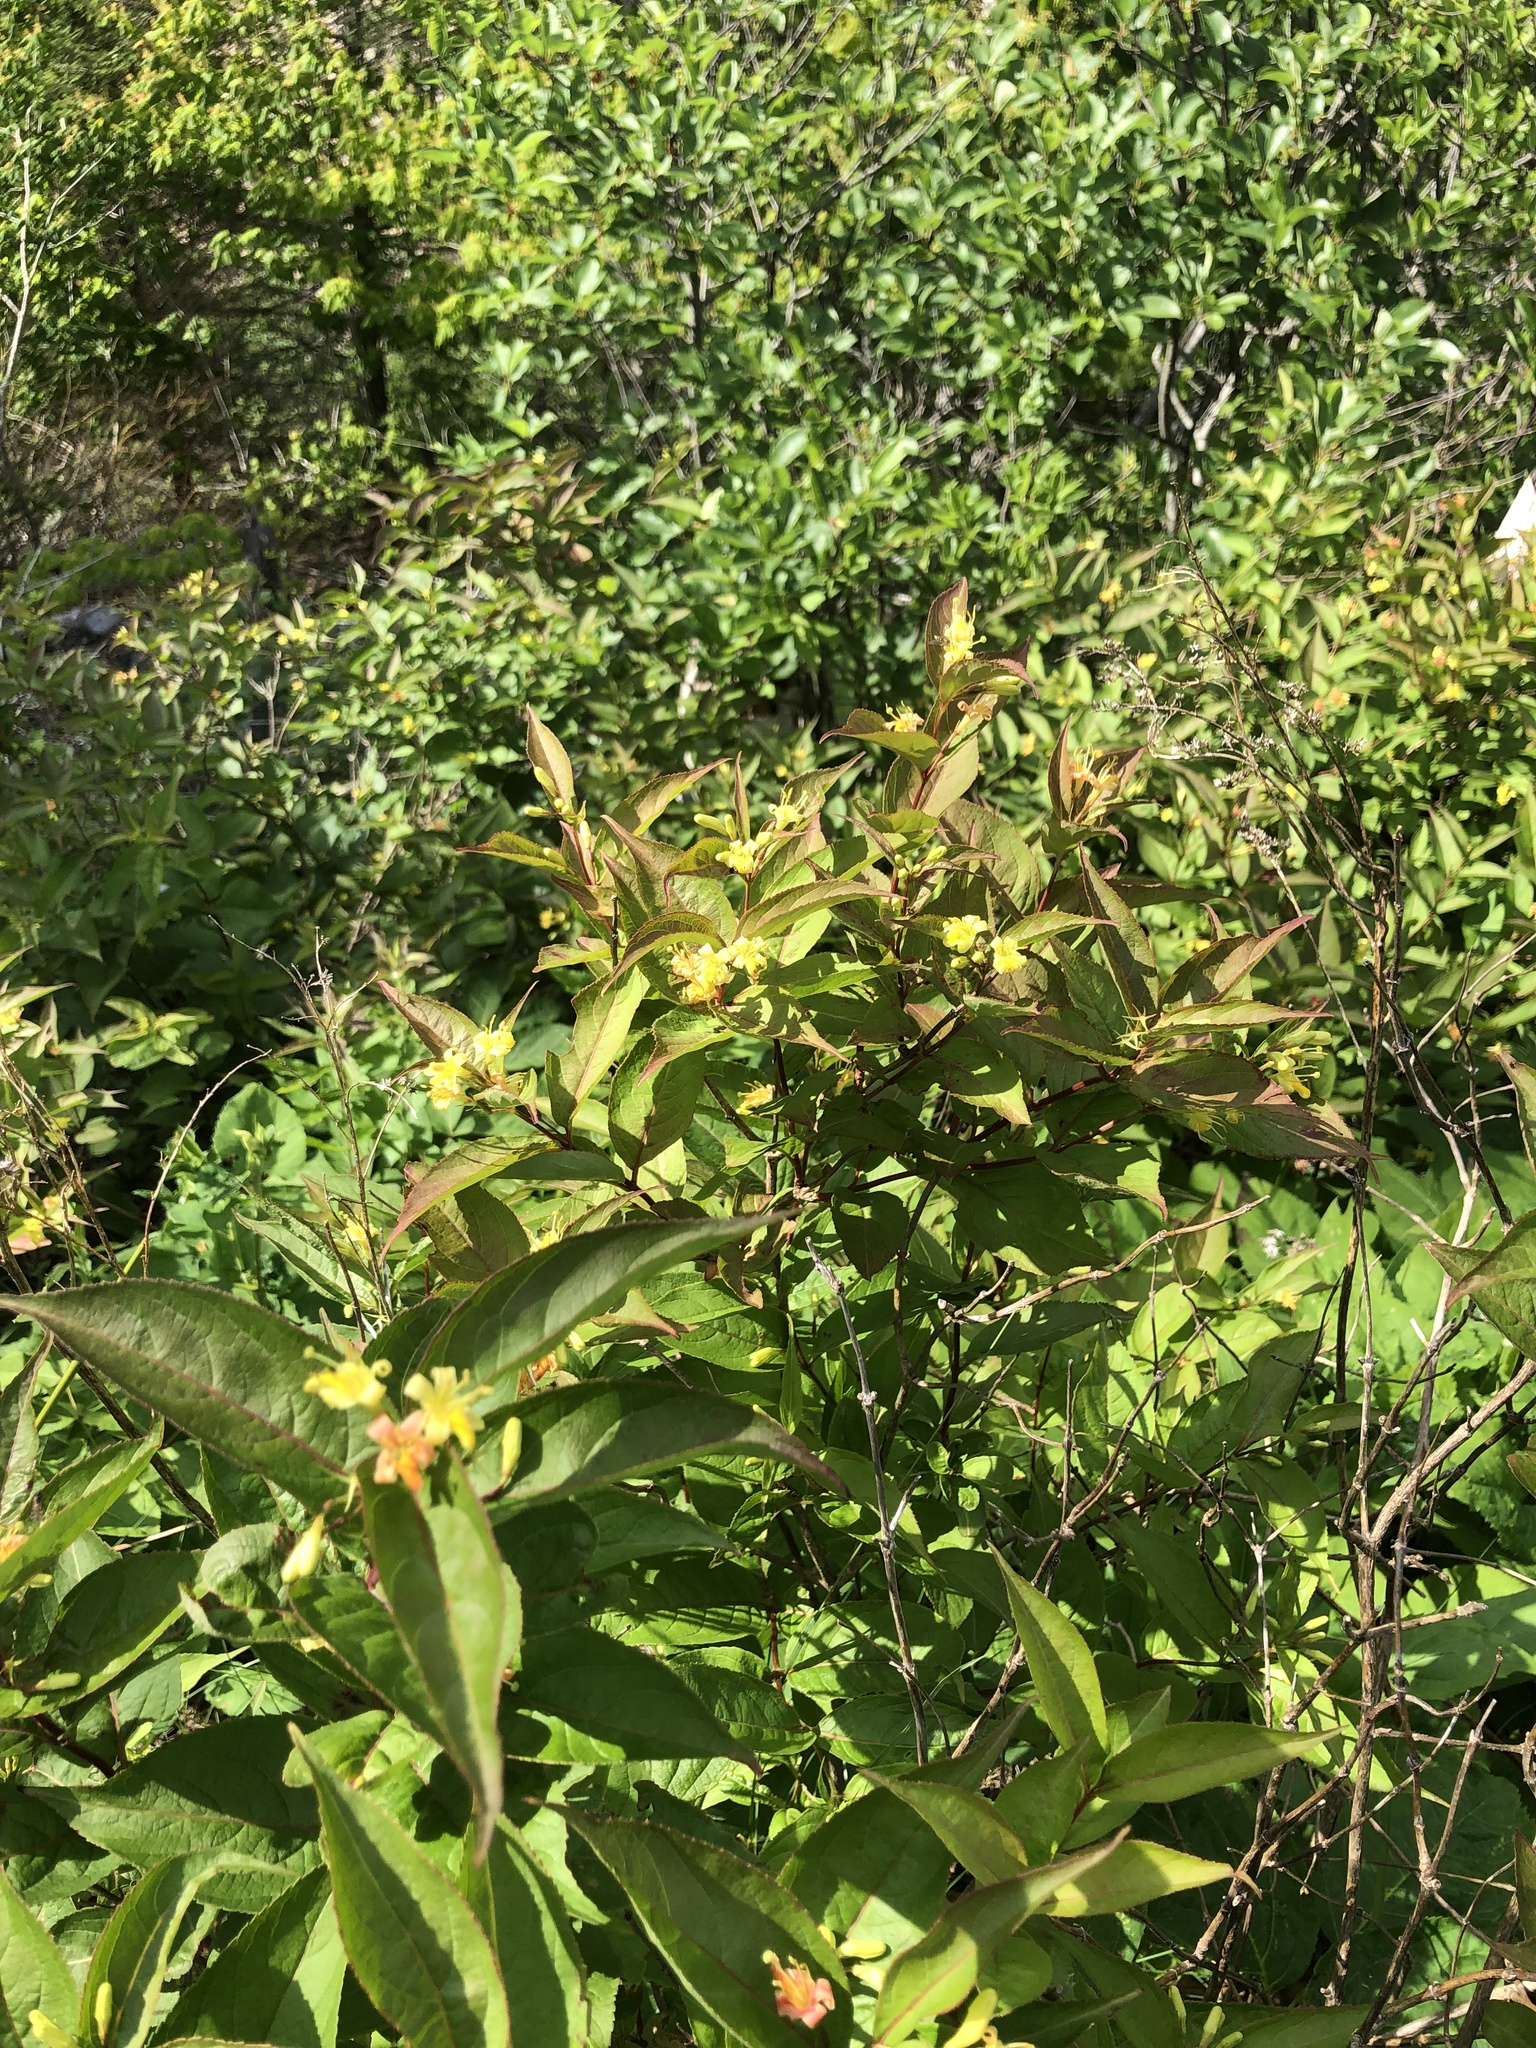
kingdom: Plantae
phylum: Tracheophyta
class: Magnoliopsida
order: Dipsacales
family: Caprifoliaceae
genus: Diervilla
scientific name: Diervilla lonicera
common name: Bush-honeysuckle
